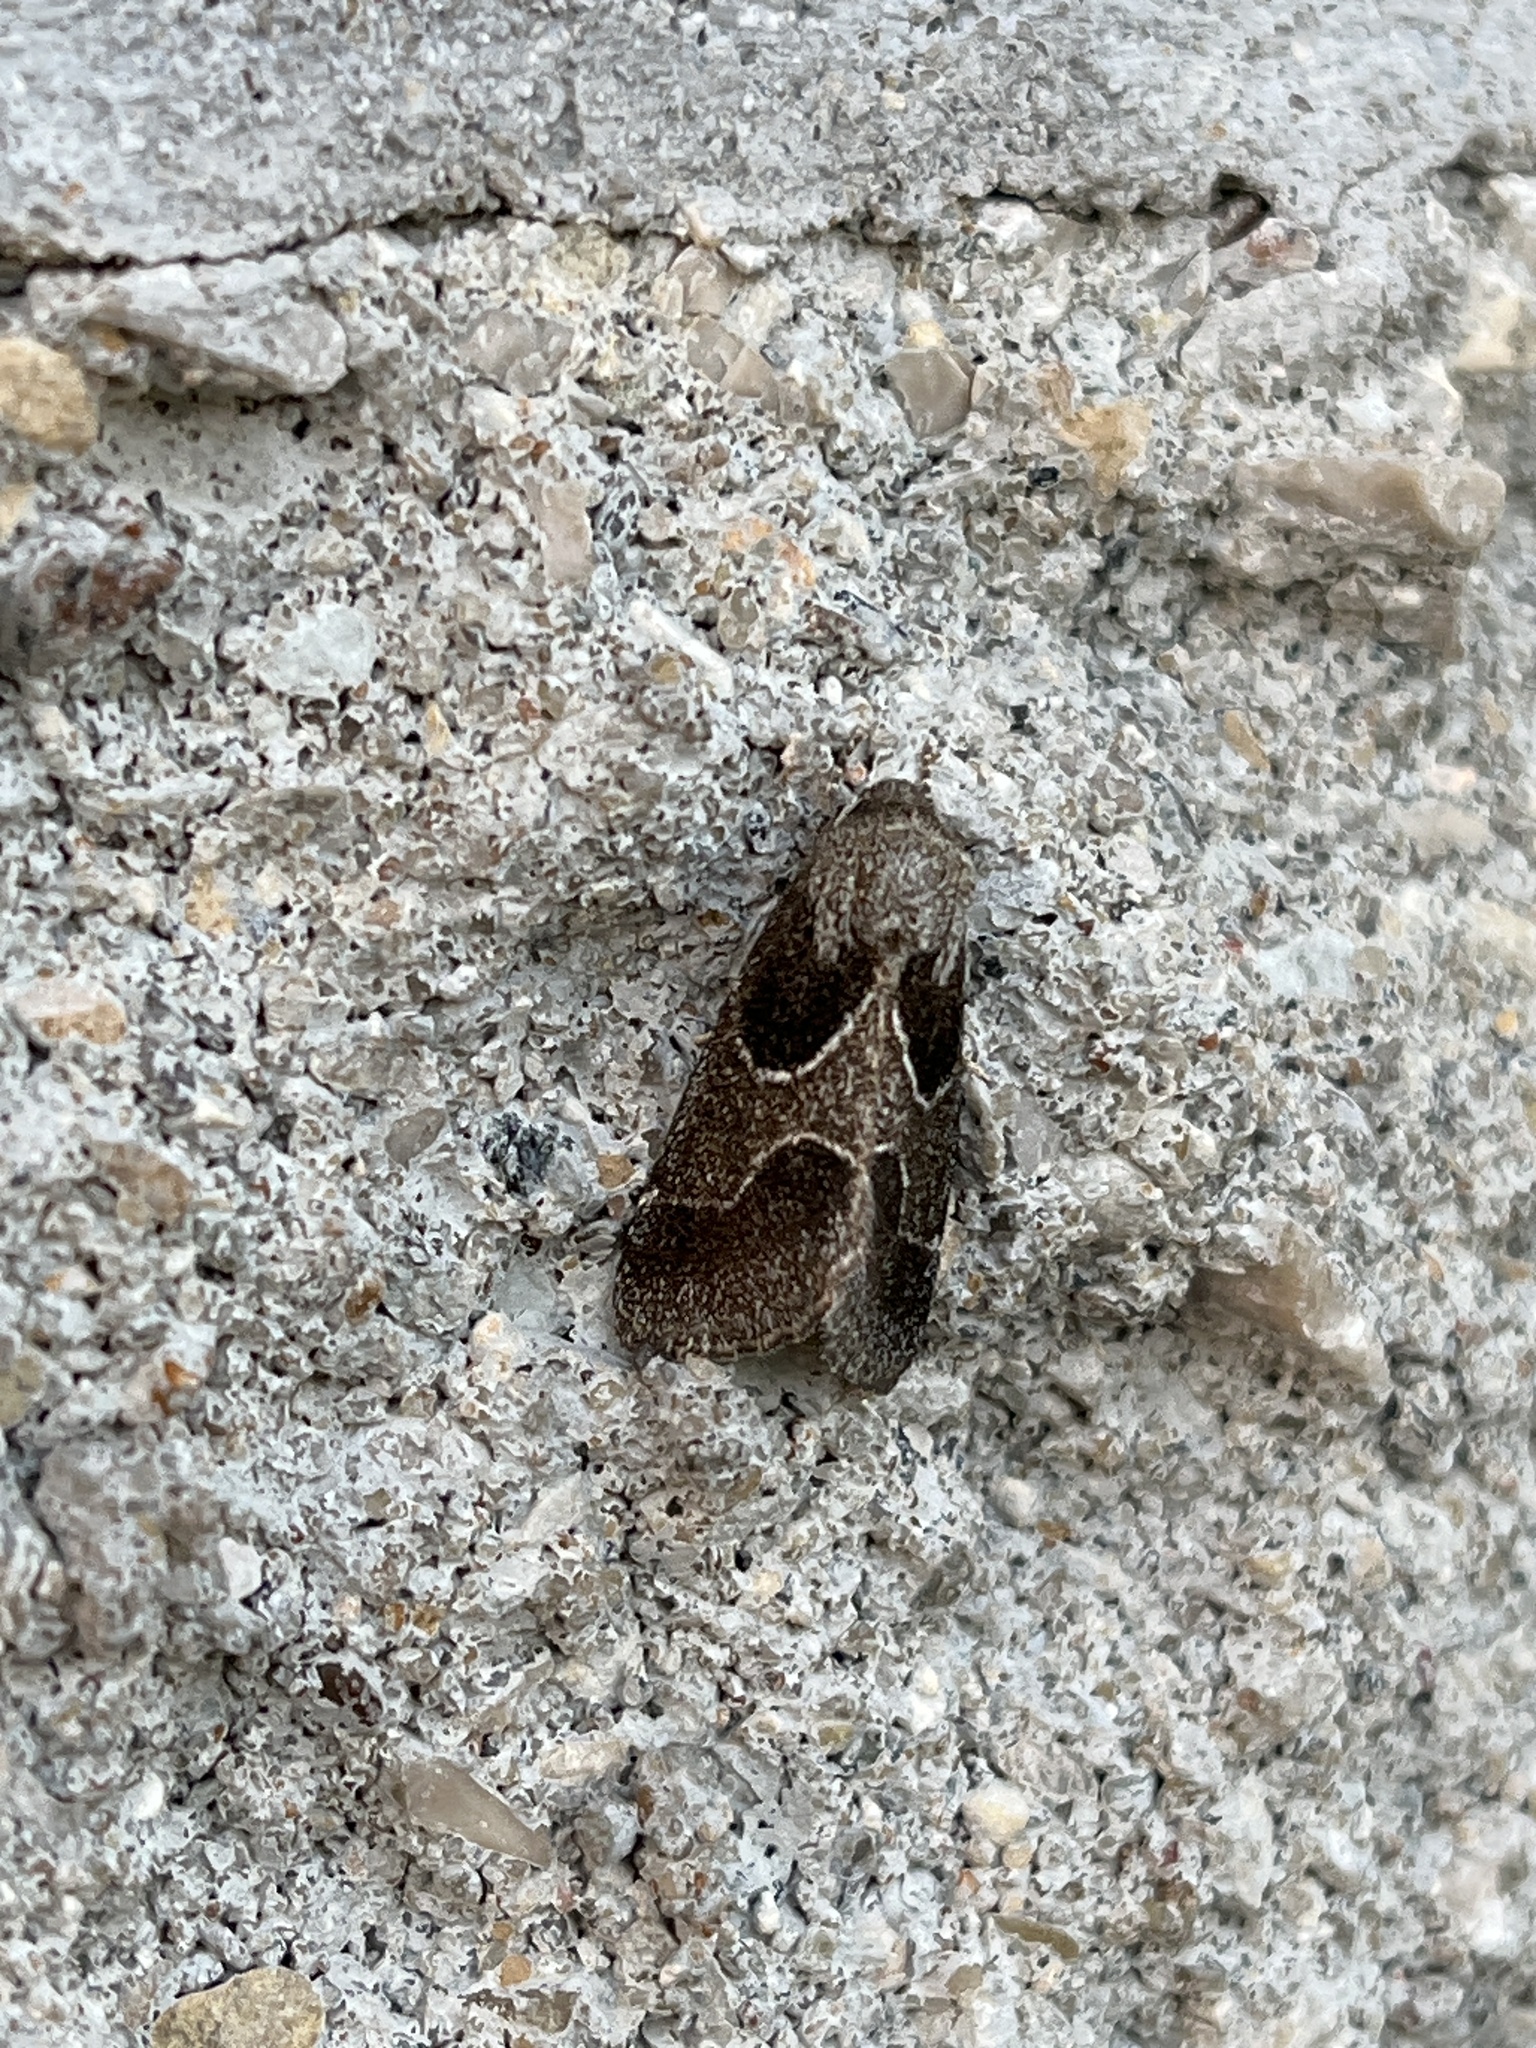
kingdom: Animalia
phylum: Arthropoda
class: Insecta
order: Lepidoptera
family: Noctuidae
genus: Schinia
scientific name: Schinia rivulosa
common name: Scarce meal-moth
